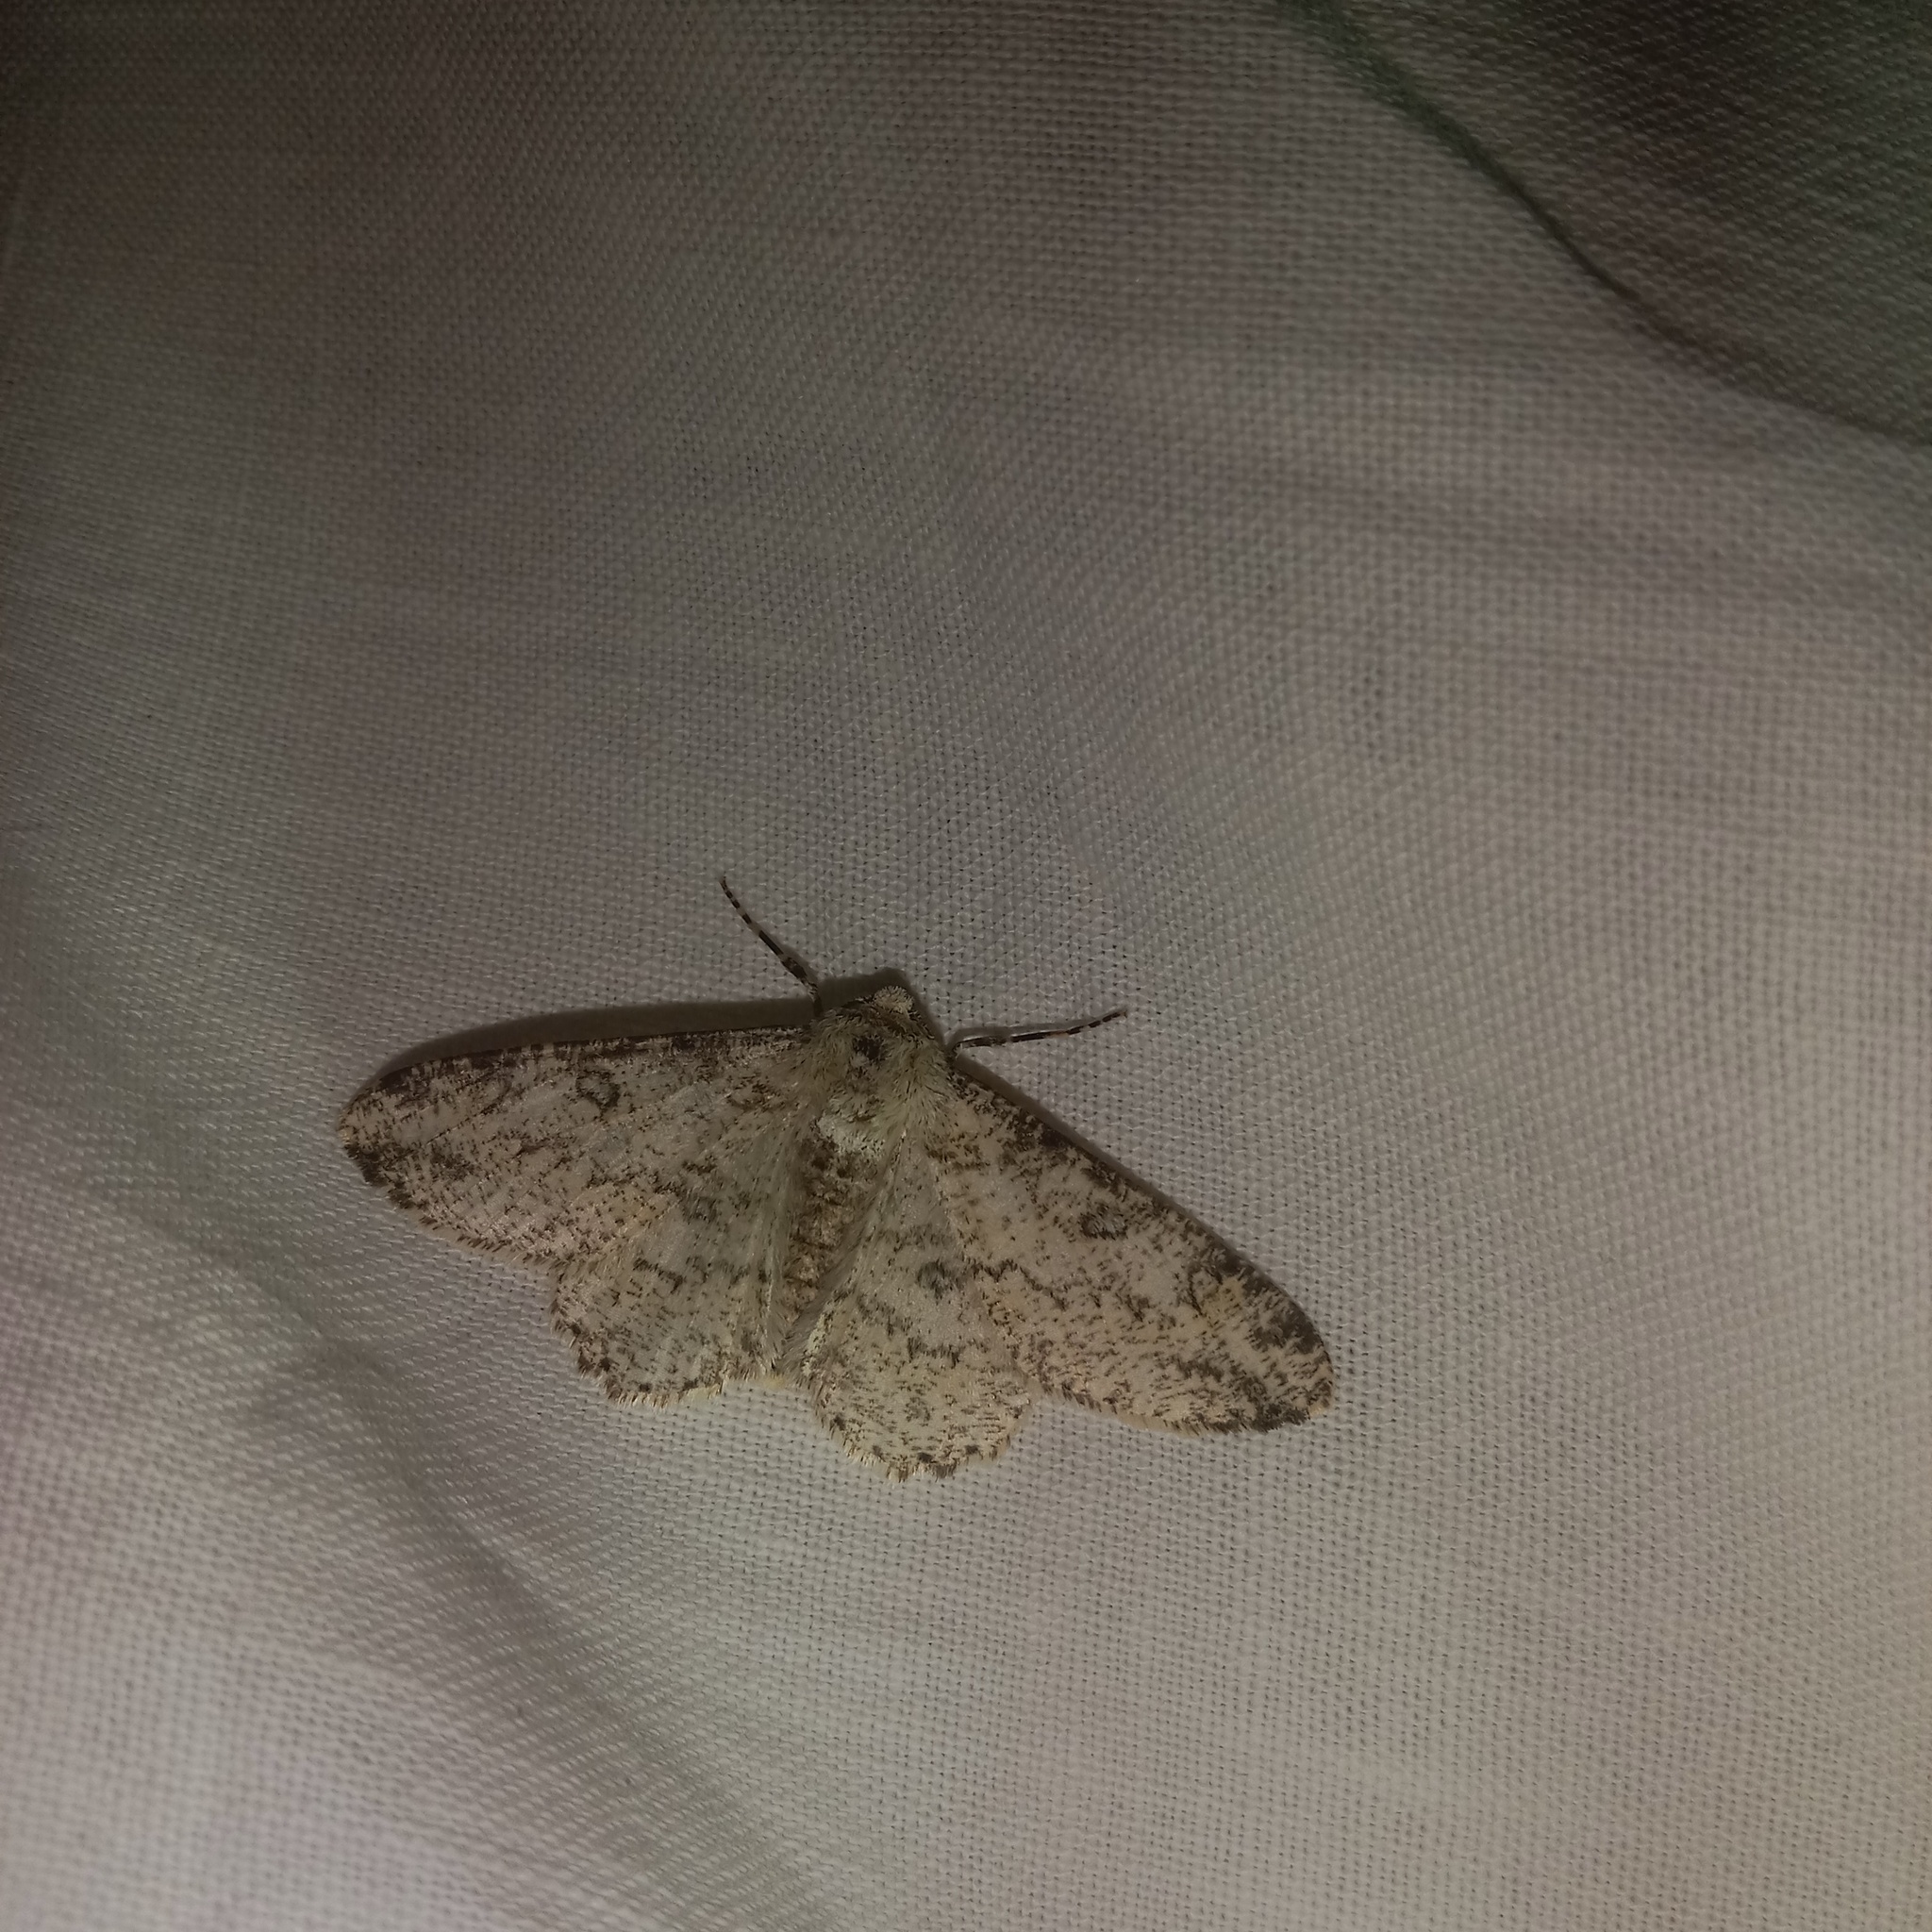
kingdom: Animalia
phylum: Arthropoda
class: Insecta
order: Lepidoptera
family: Geometridae
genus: Ascotis
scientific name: Ascotis selenaria
